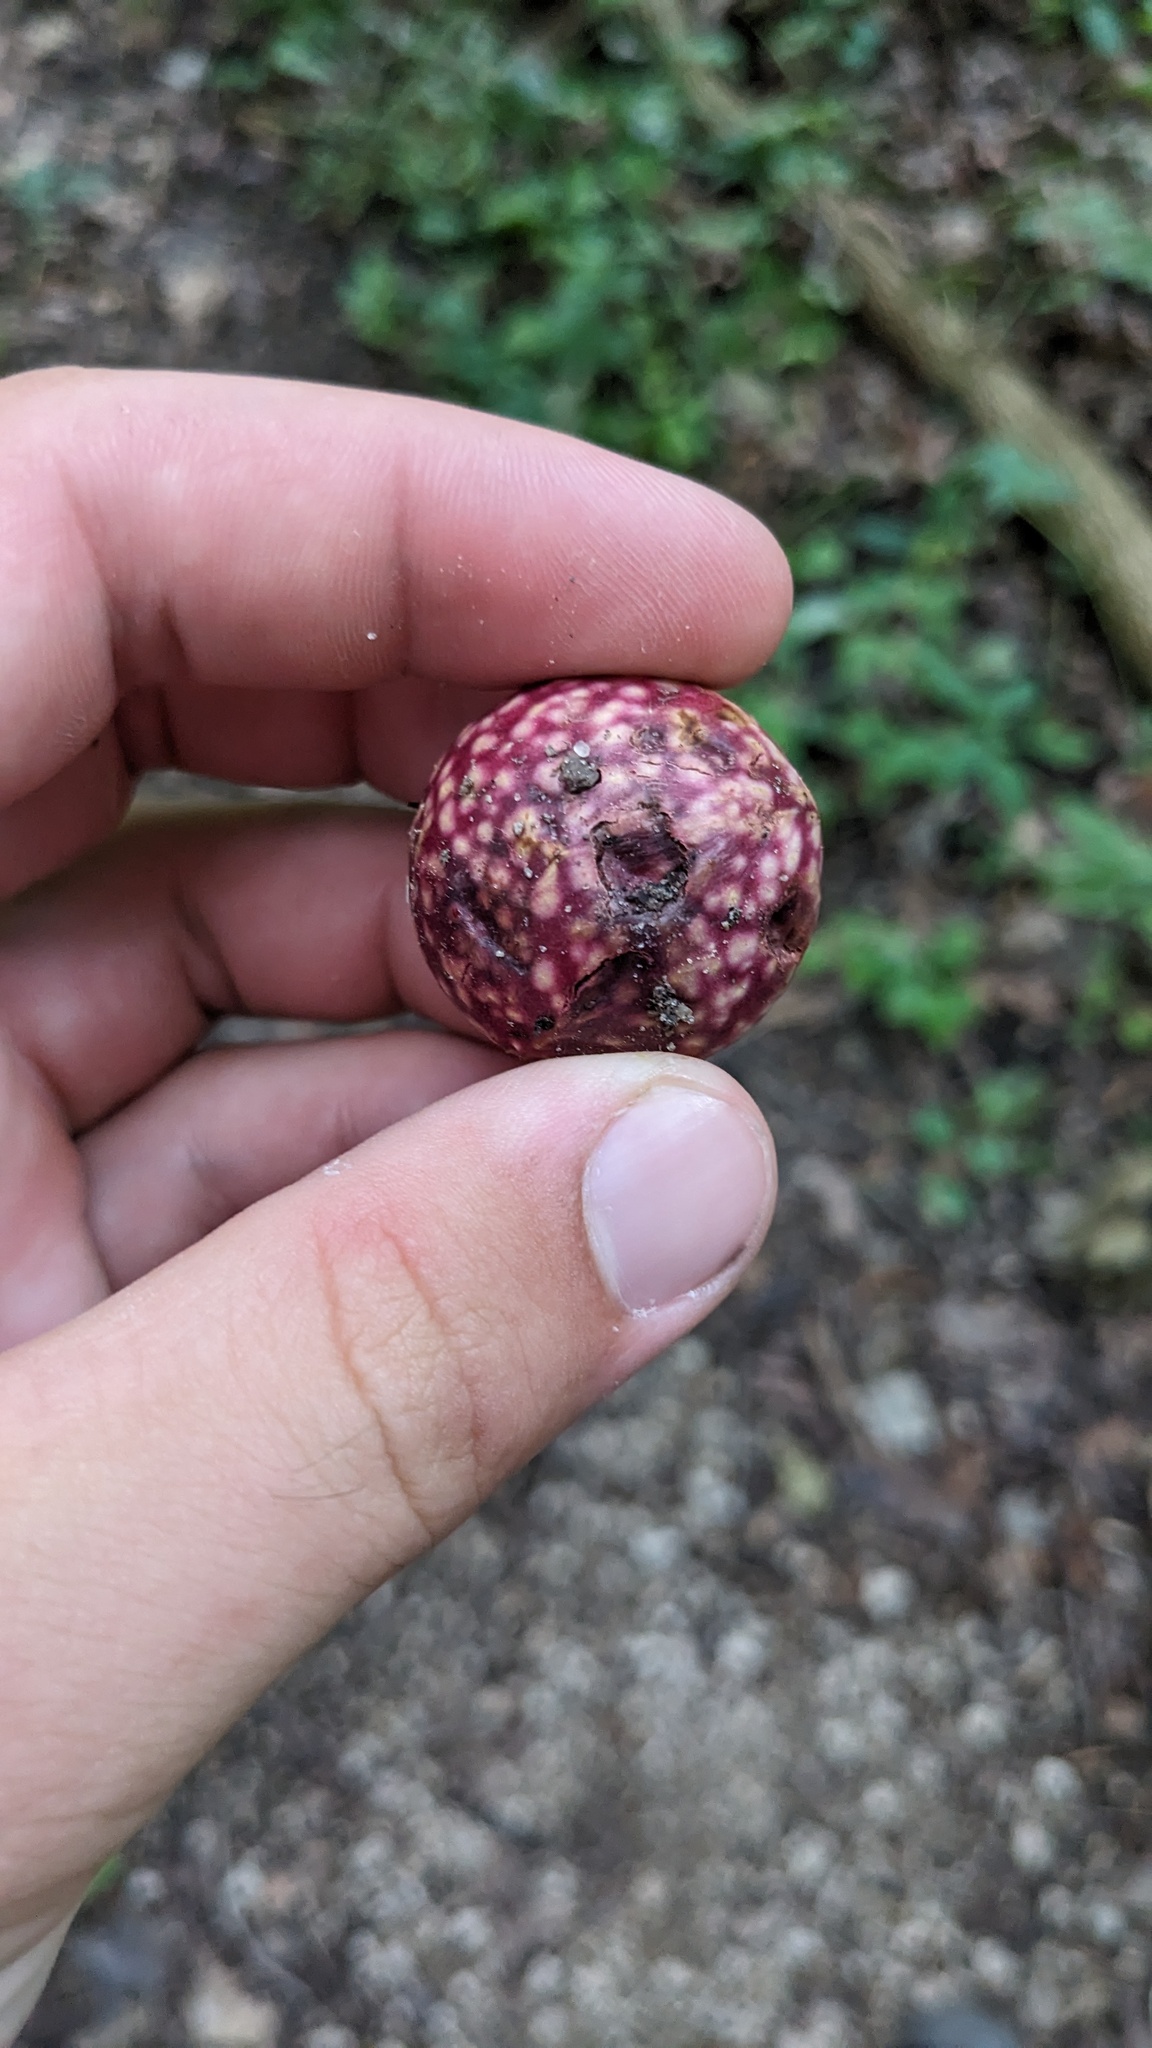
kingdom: Animalia
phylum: Arthropoda
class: Insecta
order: Hymenoptera
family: Cynipidae
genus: Amphibolips
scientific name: Amphibolips
